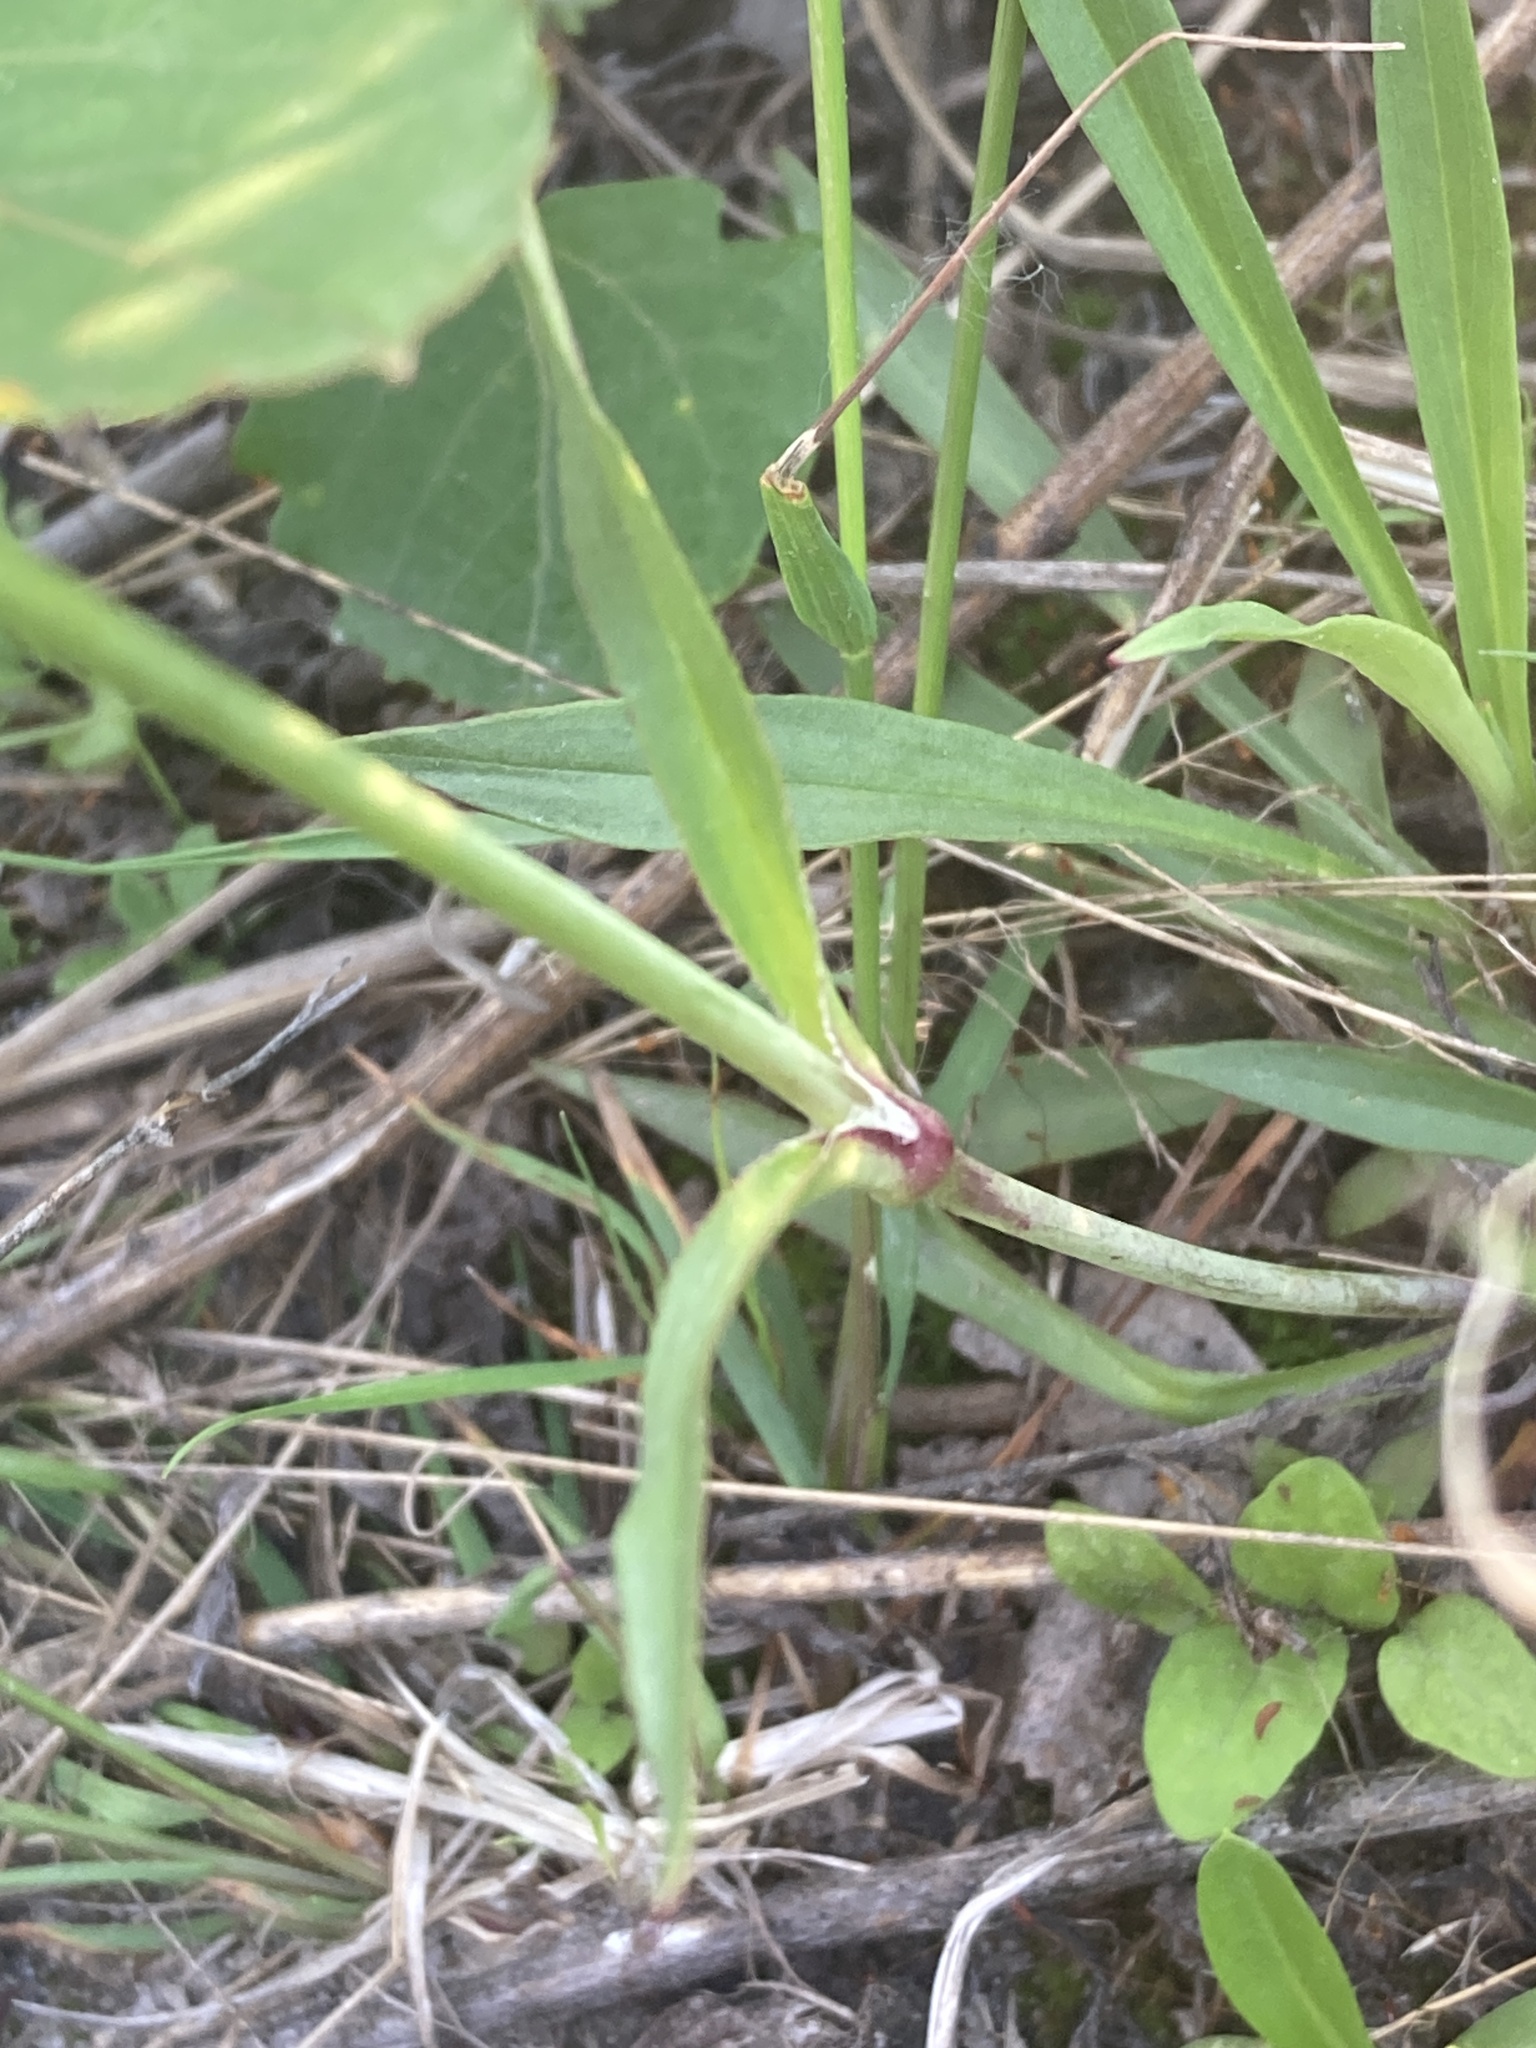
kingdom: Plantae
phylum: Tracheophyta
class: Magnoliopsida
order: Caryophyllales
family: Caryophyllaceae
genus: Viscaria
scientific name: Viscaria vulgaris
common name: Clammy campion
